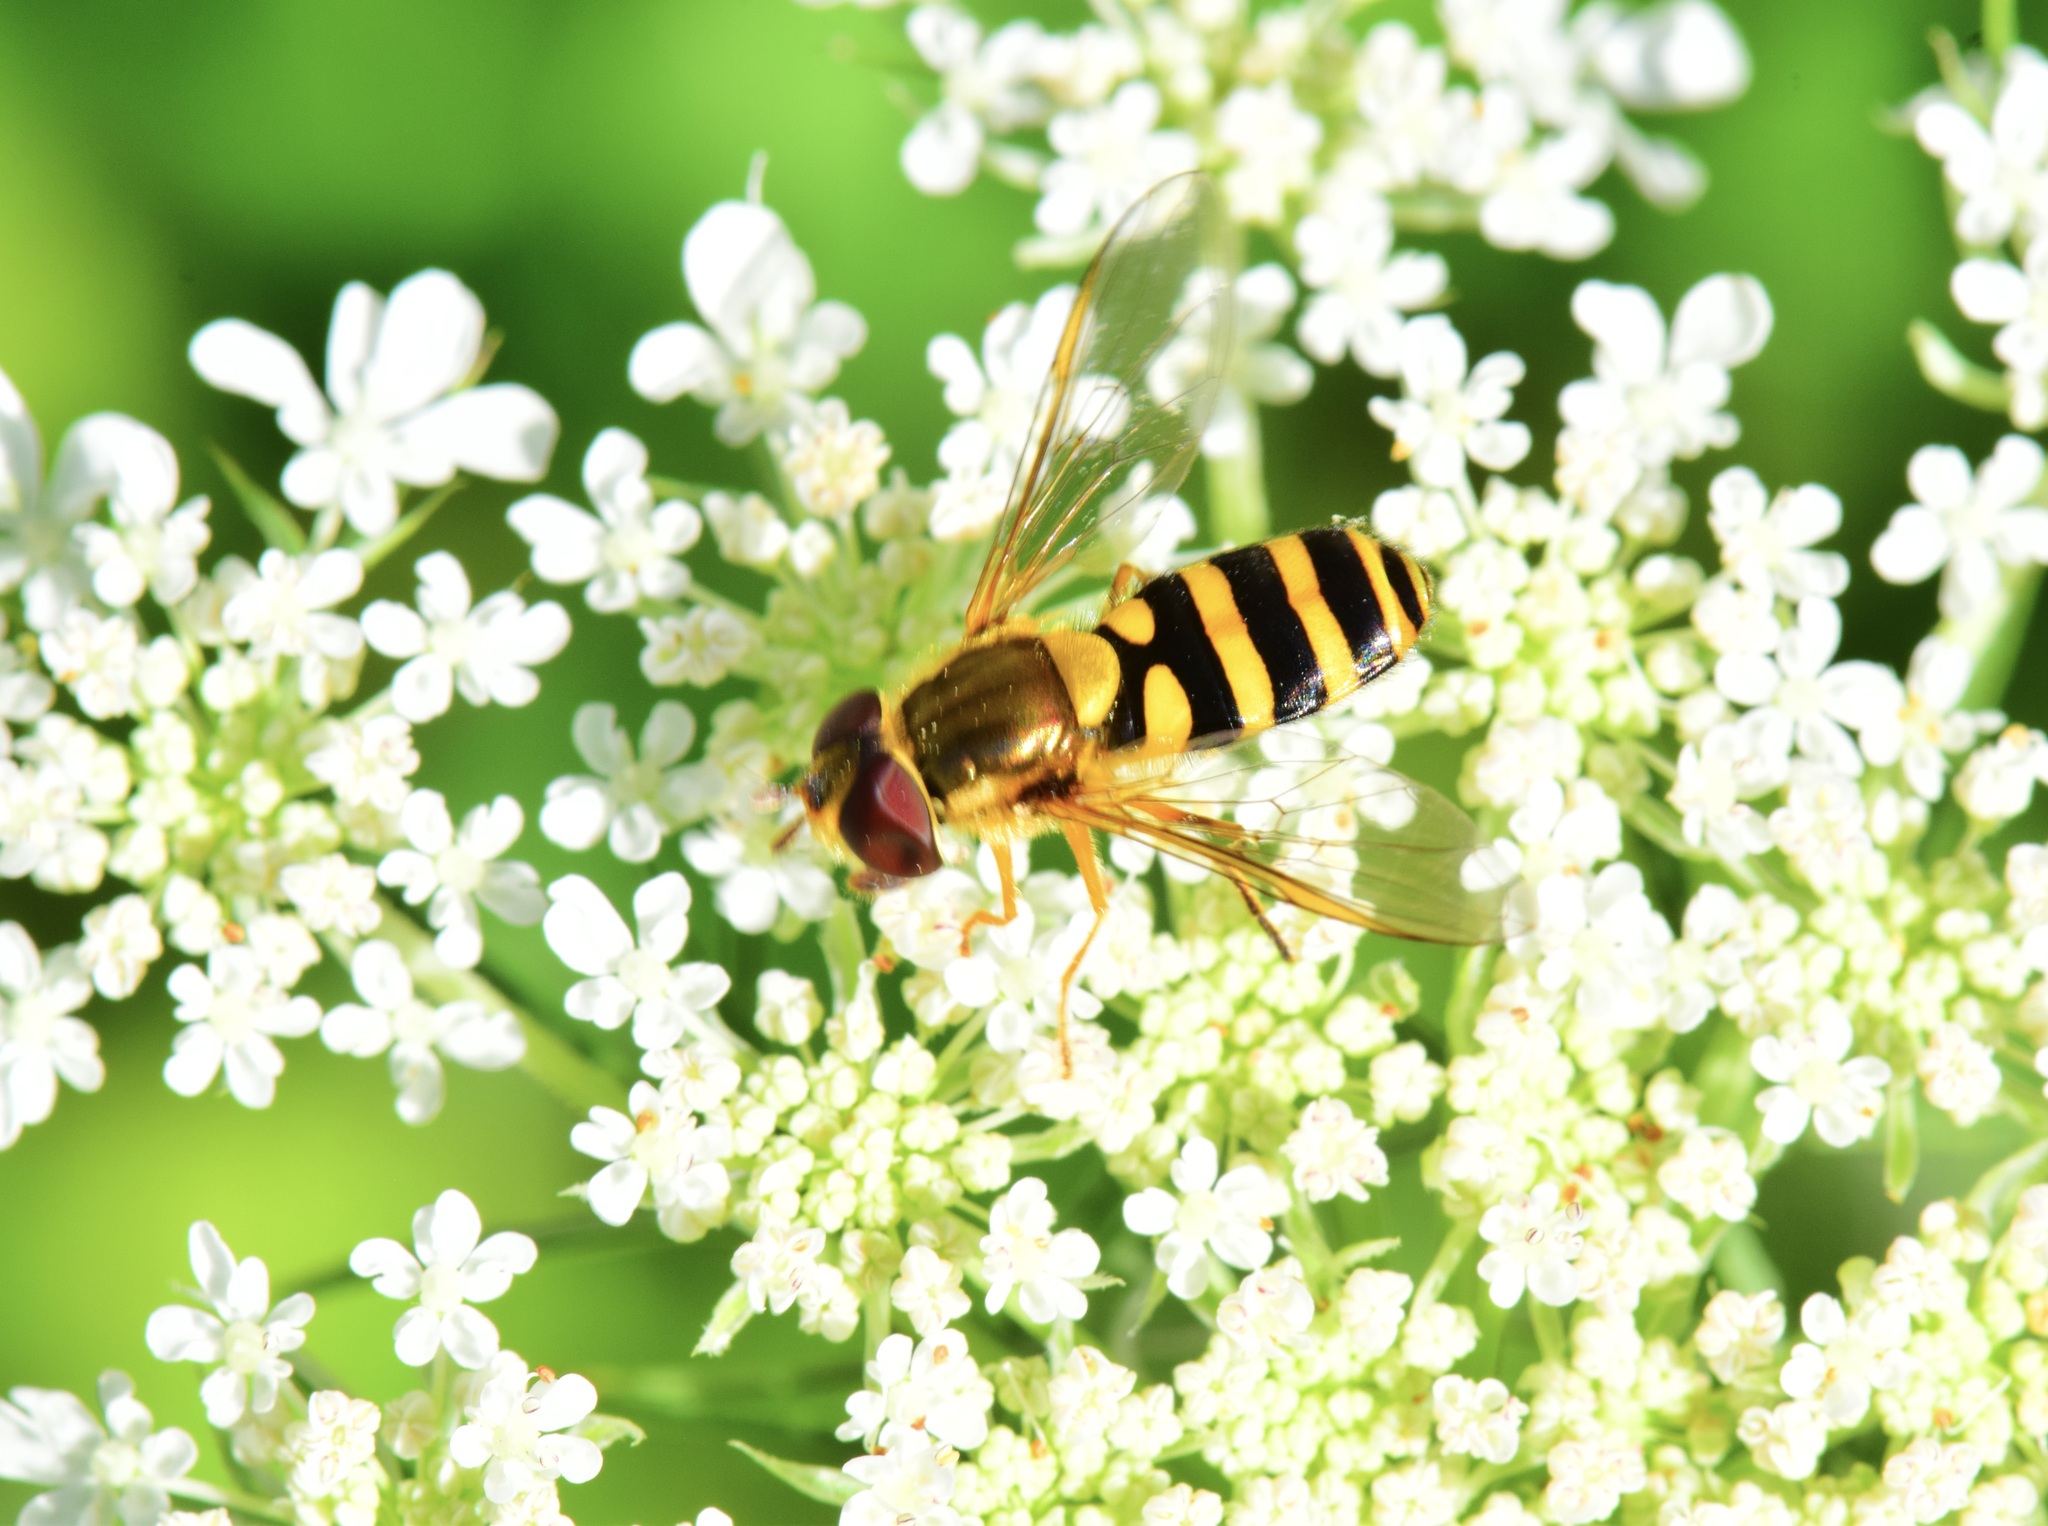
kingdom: Animalia
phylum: Arthropoda
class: Insecta
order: Diptera
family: Syrphidae
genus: Syrphus
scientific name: Syrphus rectus
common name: Yellow-legged flower fly
